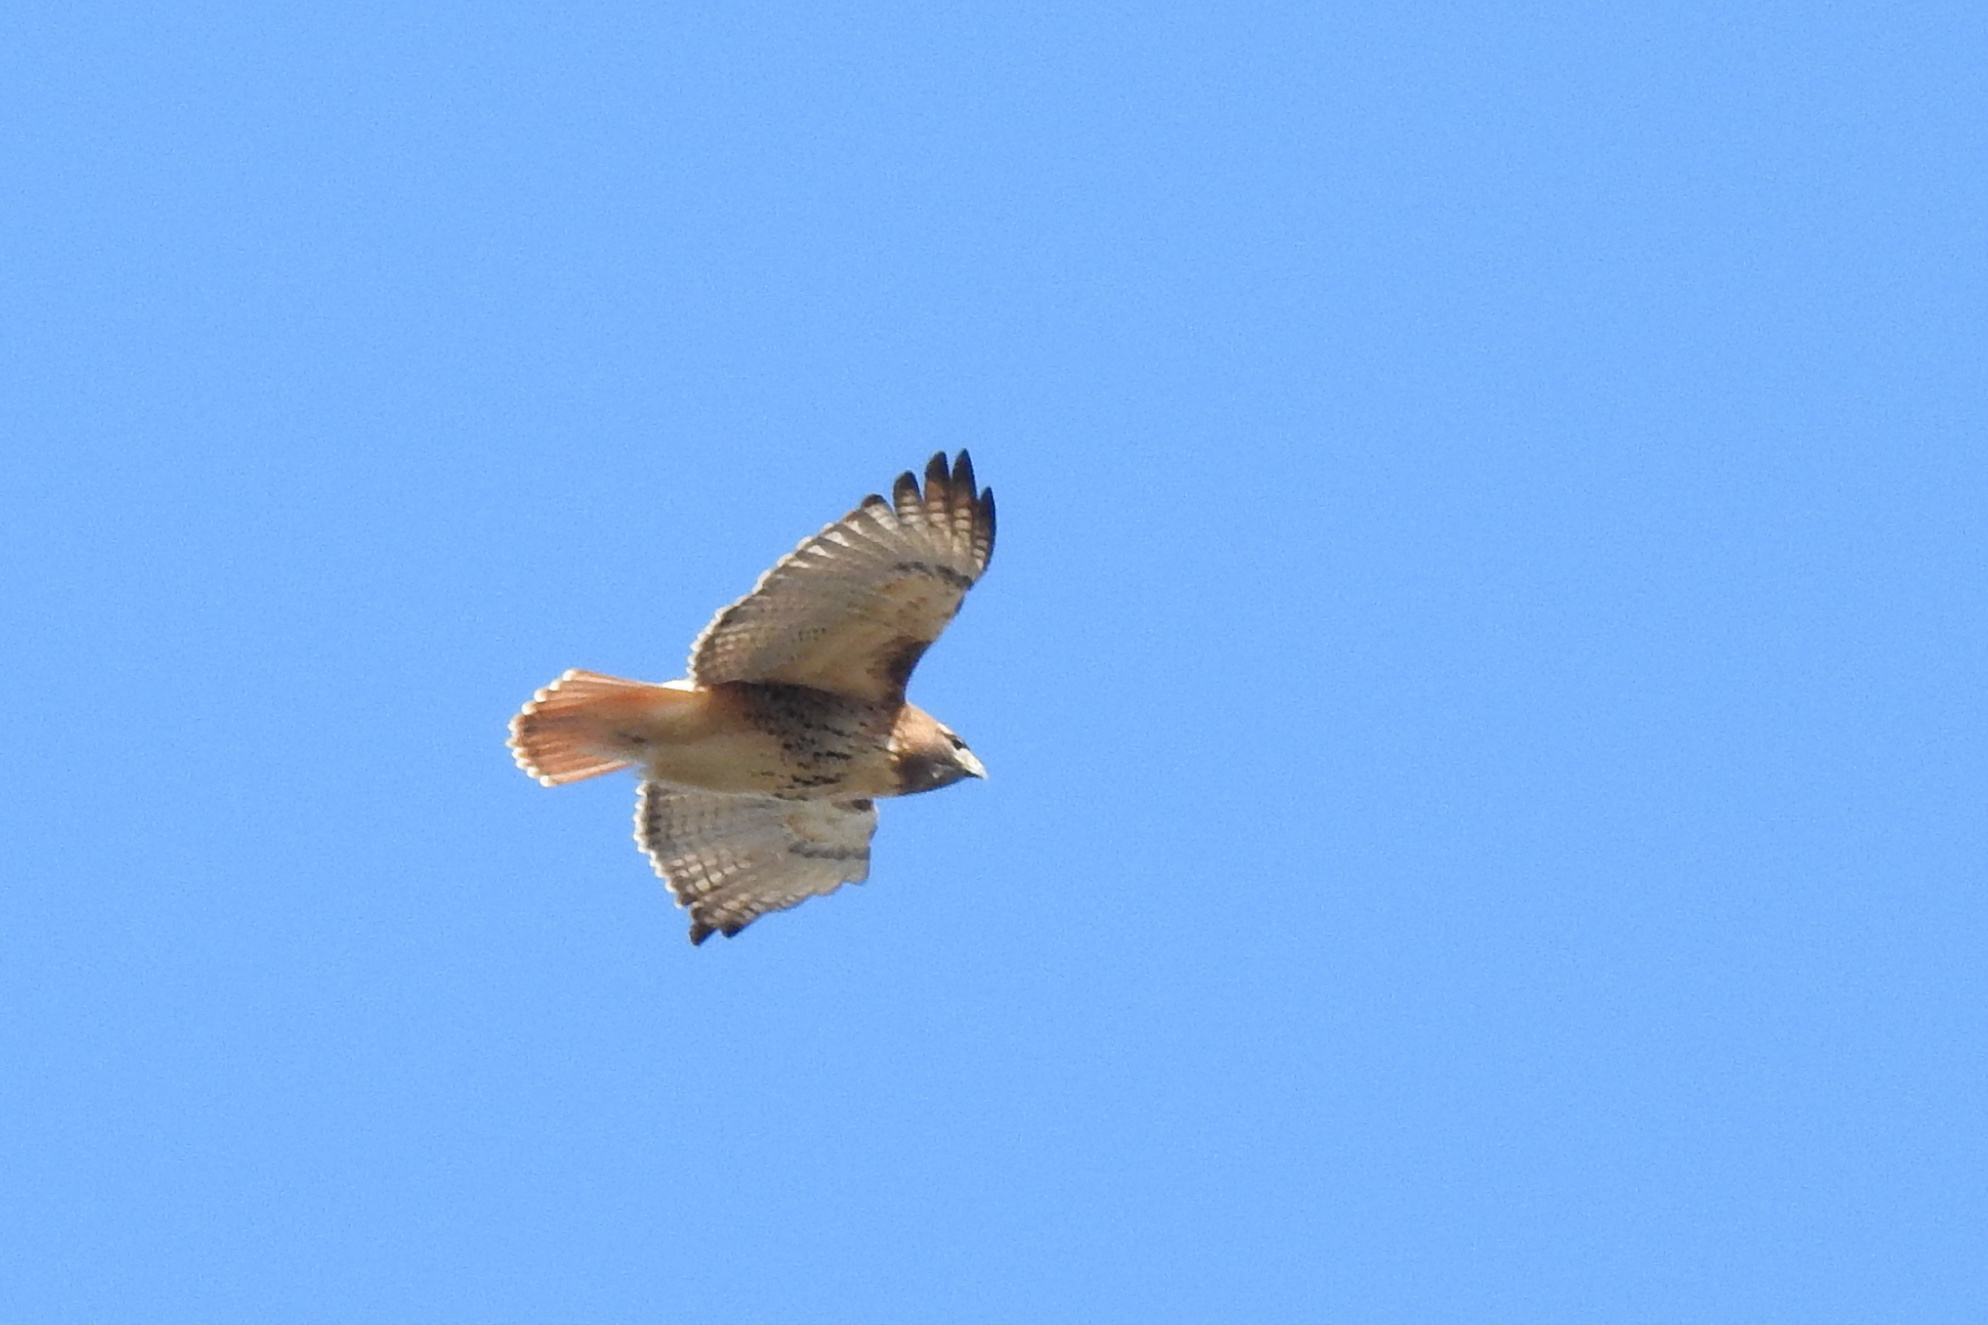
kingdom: Animalia
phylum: Chordata
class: Aves
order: Accipitriformes
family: Accipitridae
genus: Buteo
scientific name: Buteo jamaicensis
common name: Red-tailed hawk
